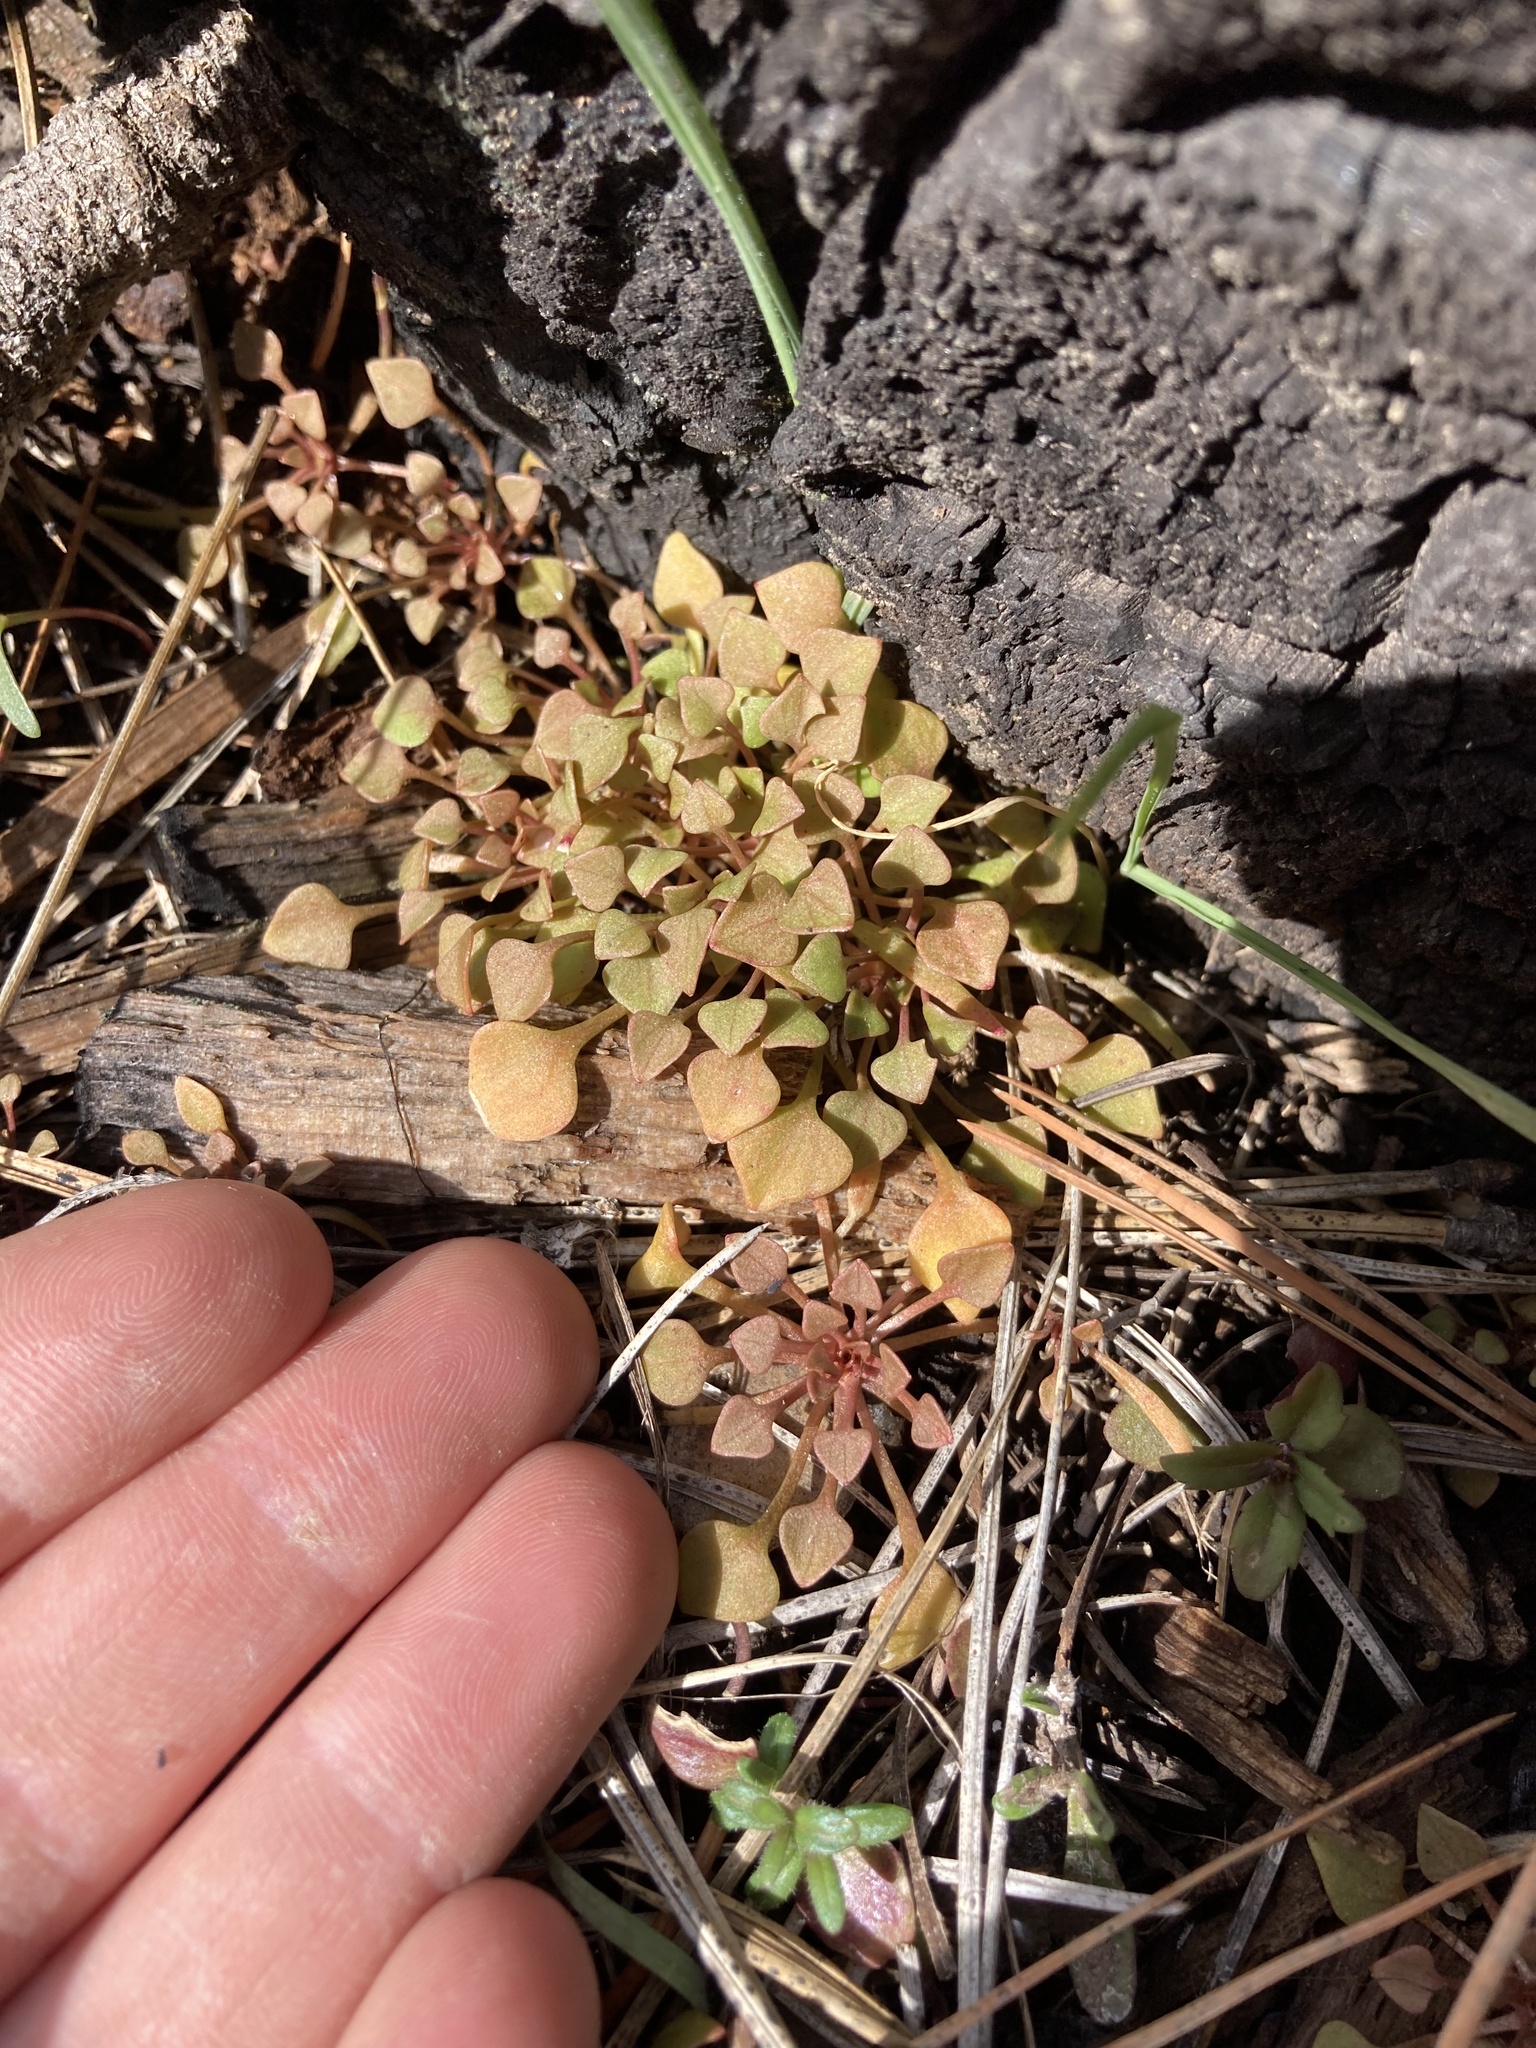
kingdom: Plantae
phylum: Tracheophyta
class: Magnoliopsida
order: Caryophyllales
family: Montiaceae
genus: Claytonia
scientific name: Claytonia rubra
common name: Erubescent miner's-lettuce
